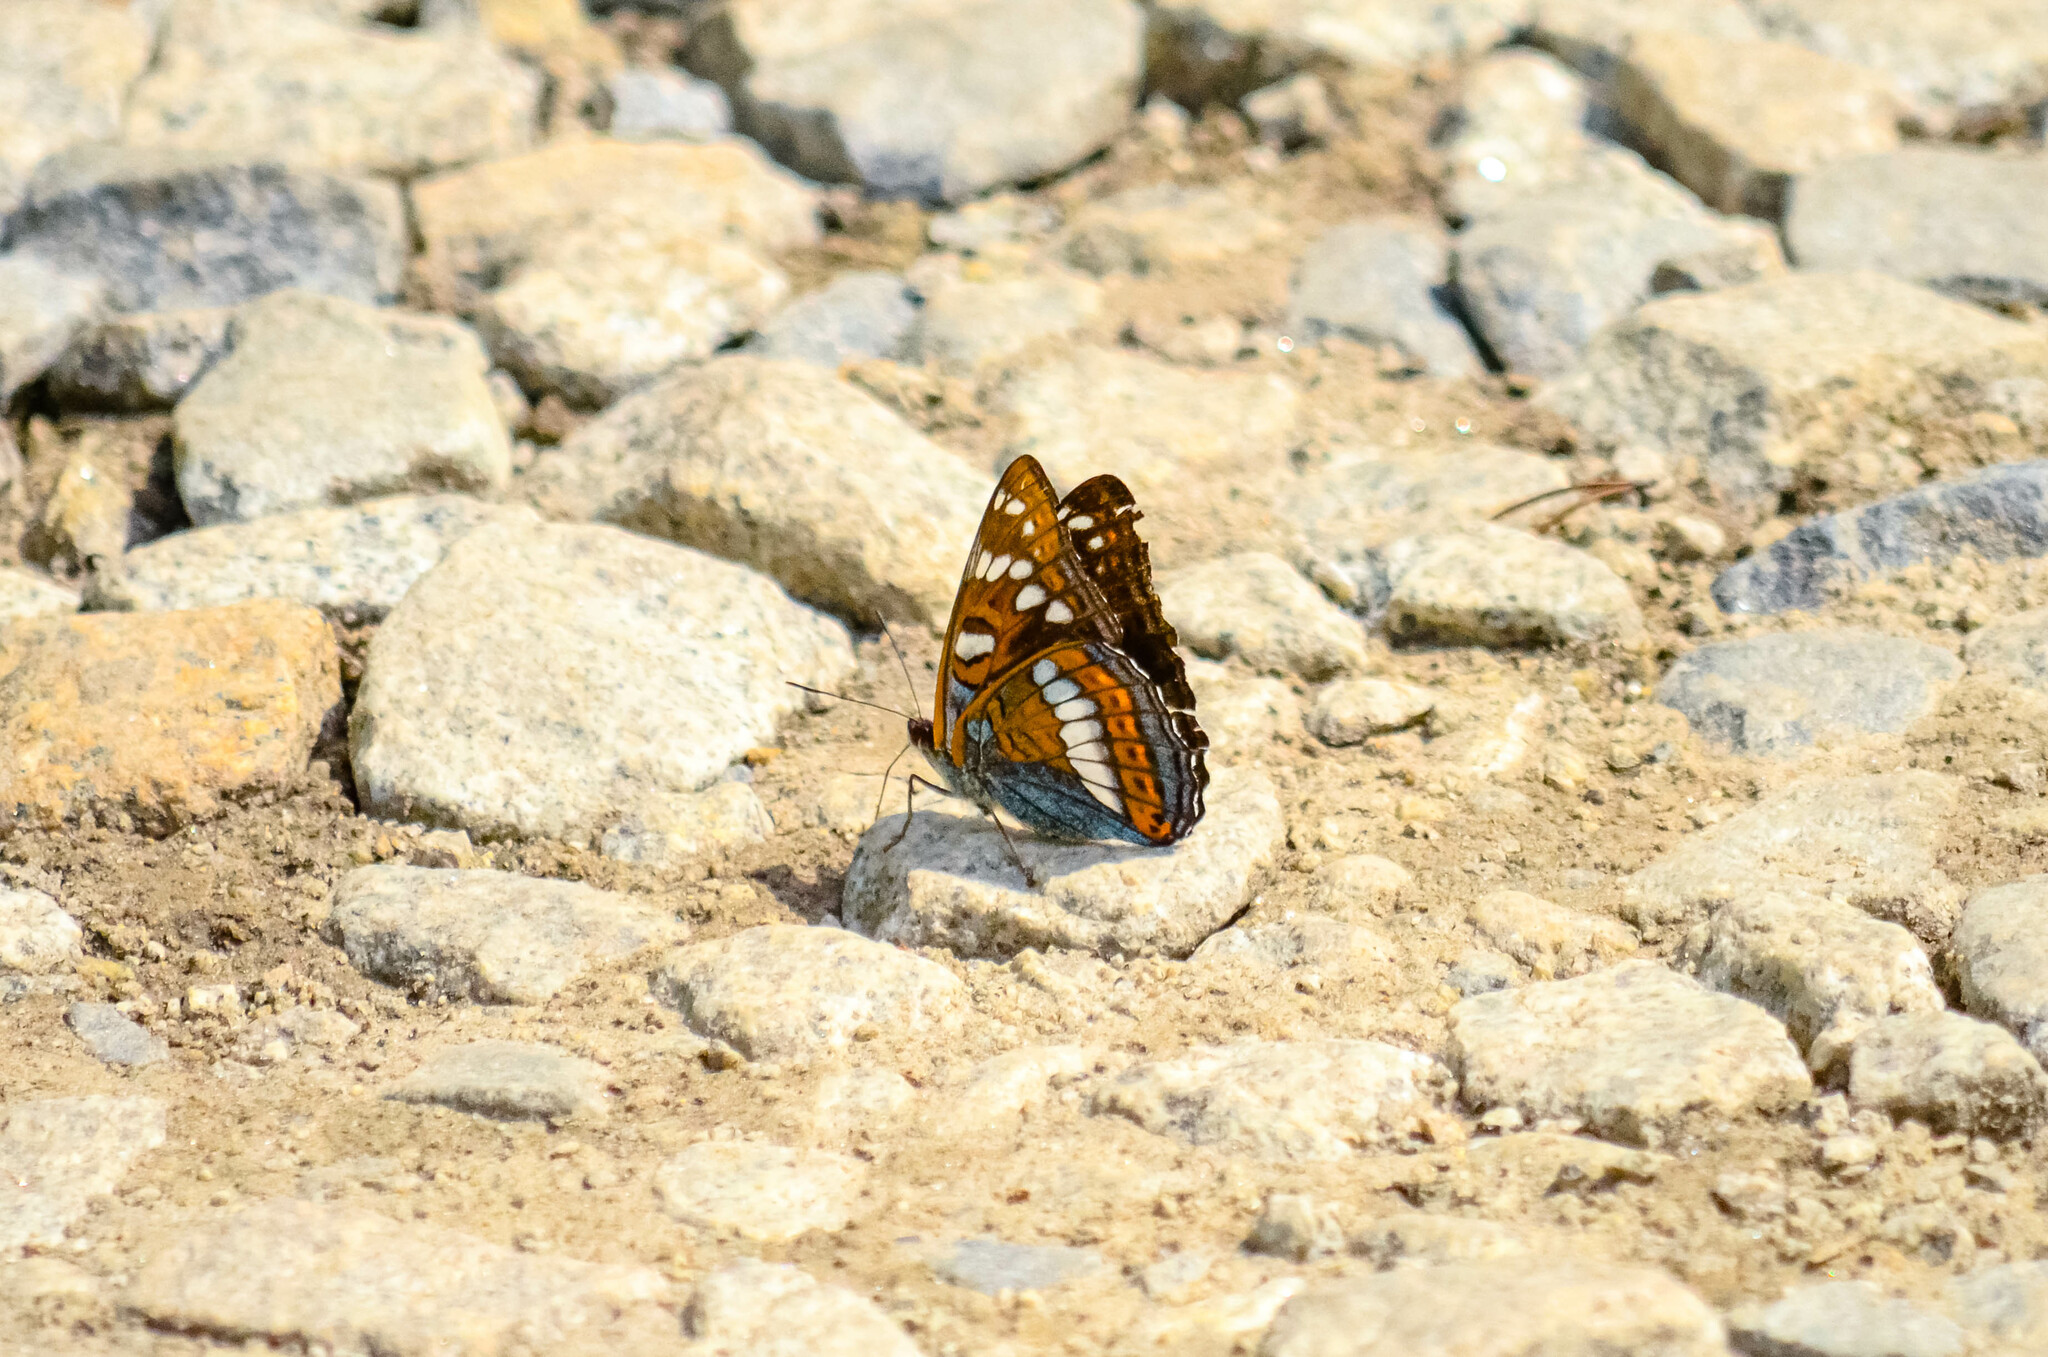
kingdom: Animalia
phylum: Arthropoda
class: Insecta
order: Lepidoptera
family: Nymphalidae
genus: Limenitis
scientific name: Limenitis populi
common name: Poplar admiral
